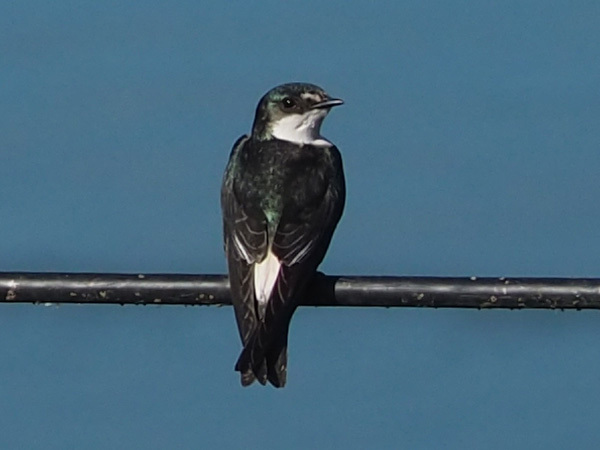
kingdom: Animalia
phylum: Chordata
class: Aves
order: Passeriformes
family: Hirundinidae
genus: Tachycineta
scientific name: Tachycineta albilinea
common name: Mangrove swallow
